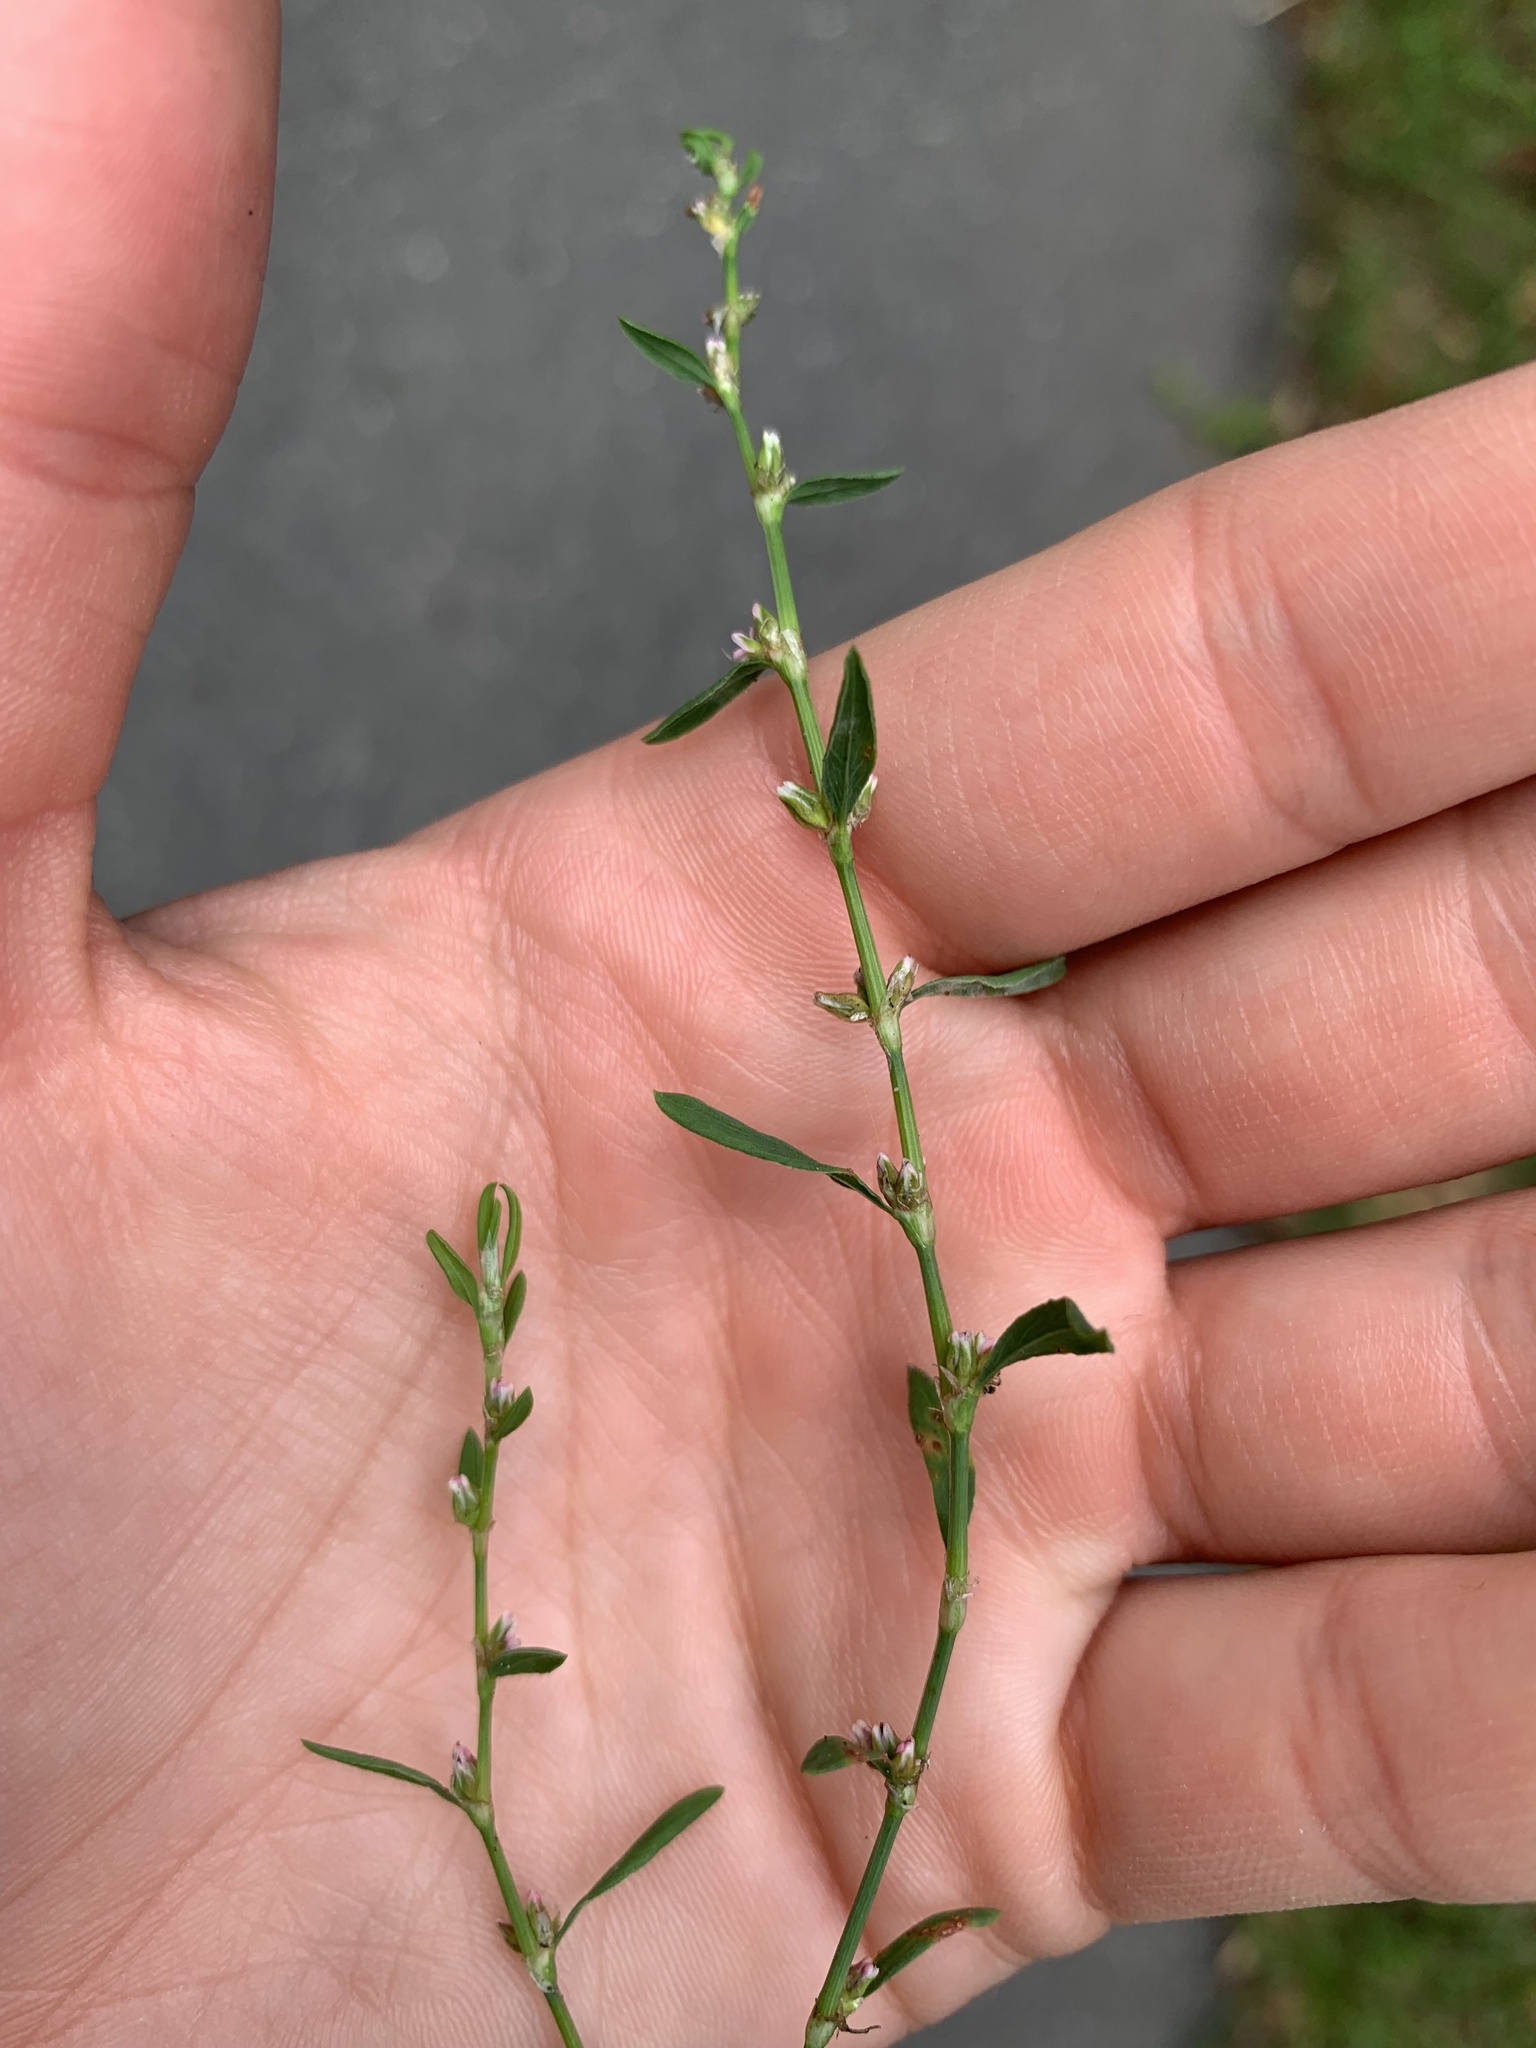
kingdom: Plantae
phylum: Tracheophyta
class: Magnoliopsida
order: Caryophyllales
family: Polygonaceae
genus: Polygonum
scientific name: Polygonum aviculare
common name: Prostrate knotweed
